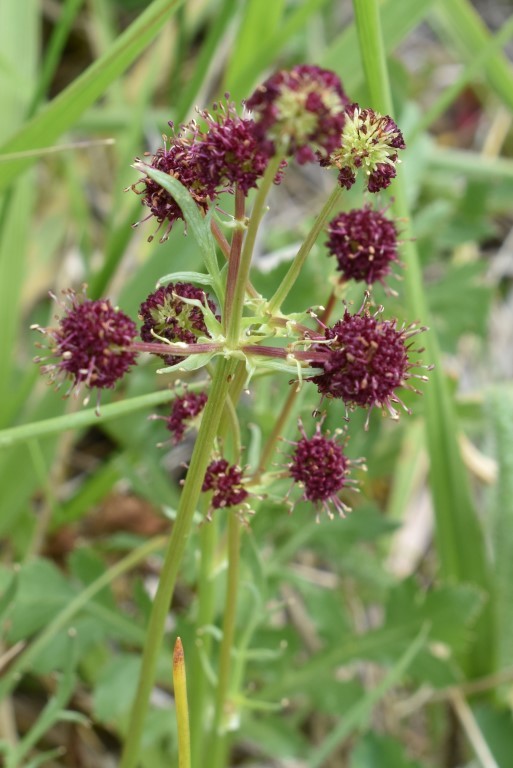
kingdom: Plantae
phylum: Tracheophyta
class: Magnoliopsida
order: Apiales
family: Apiaceae
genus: Sanicula
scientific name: Sanicula bipinnatifida
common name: Shoe-buttons
